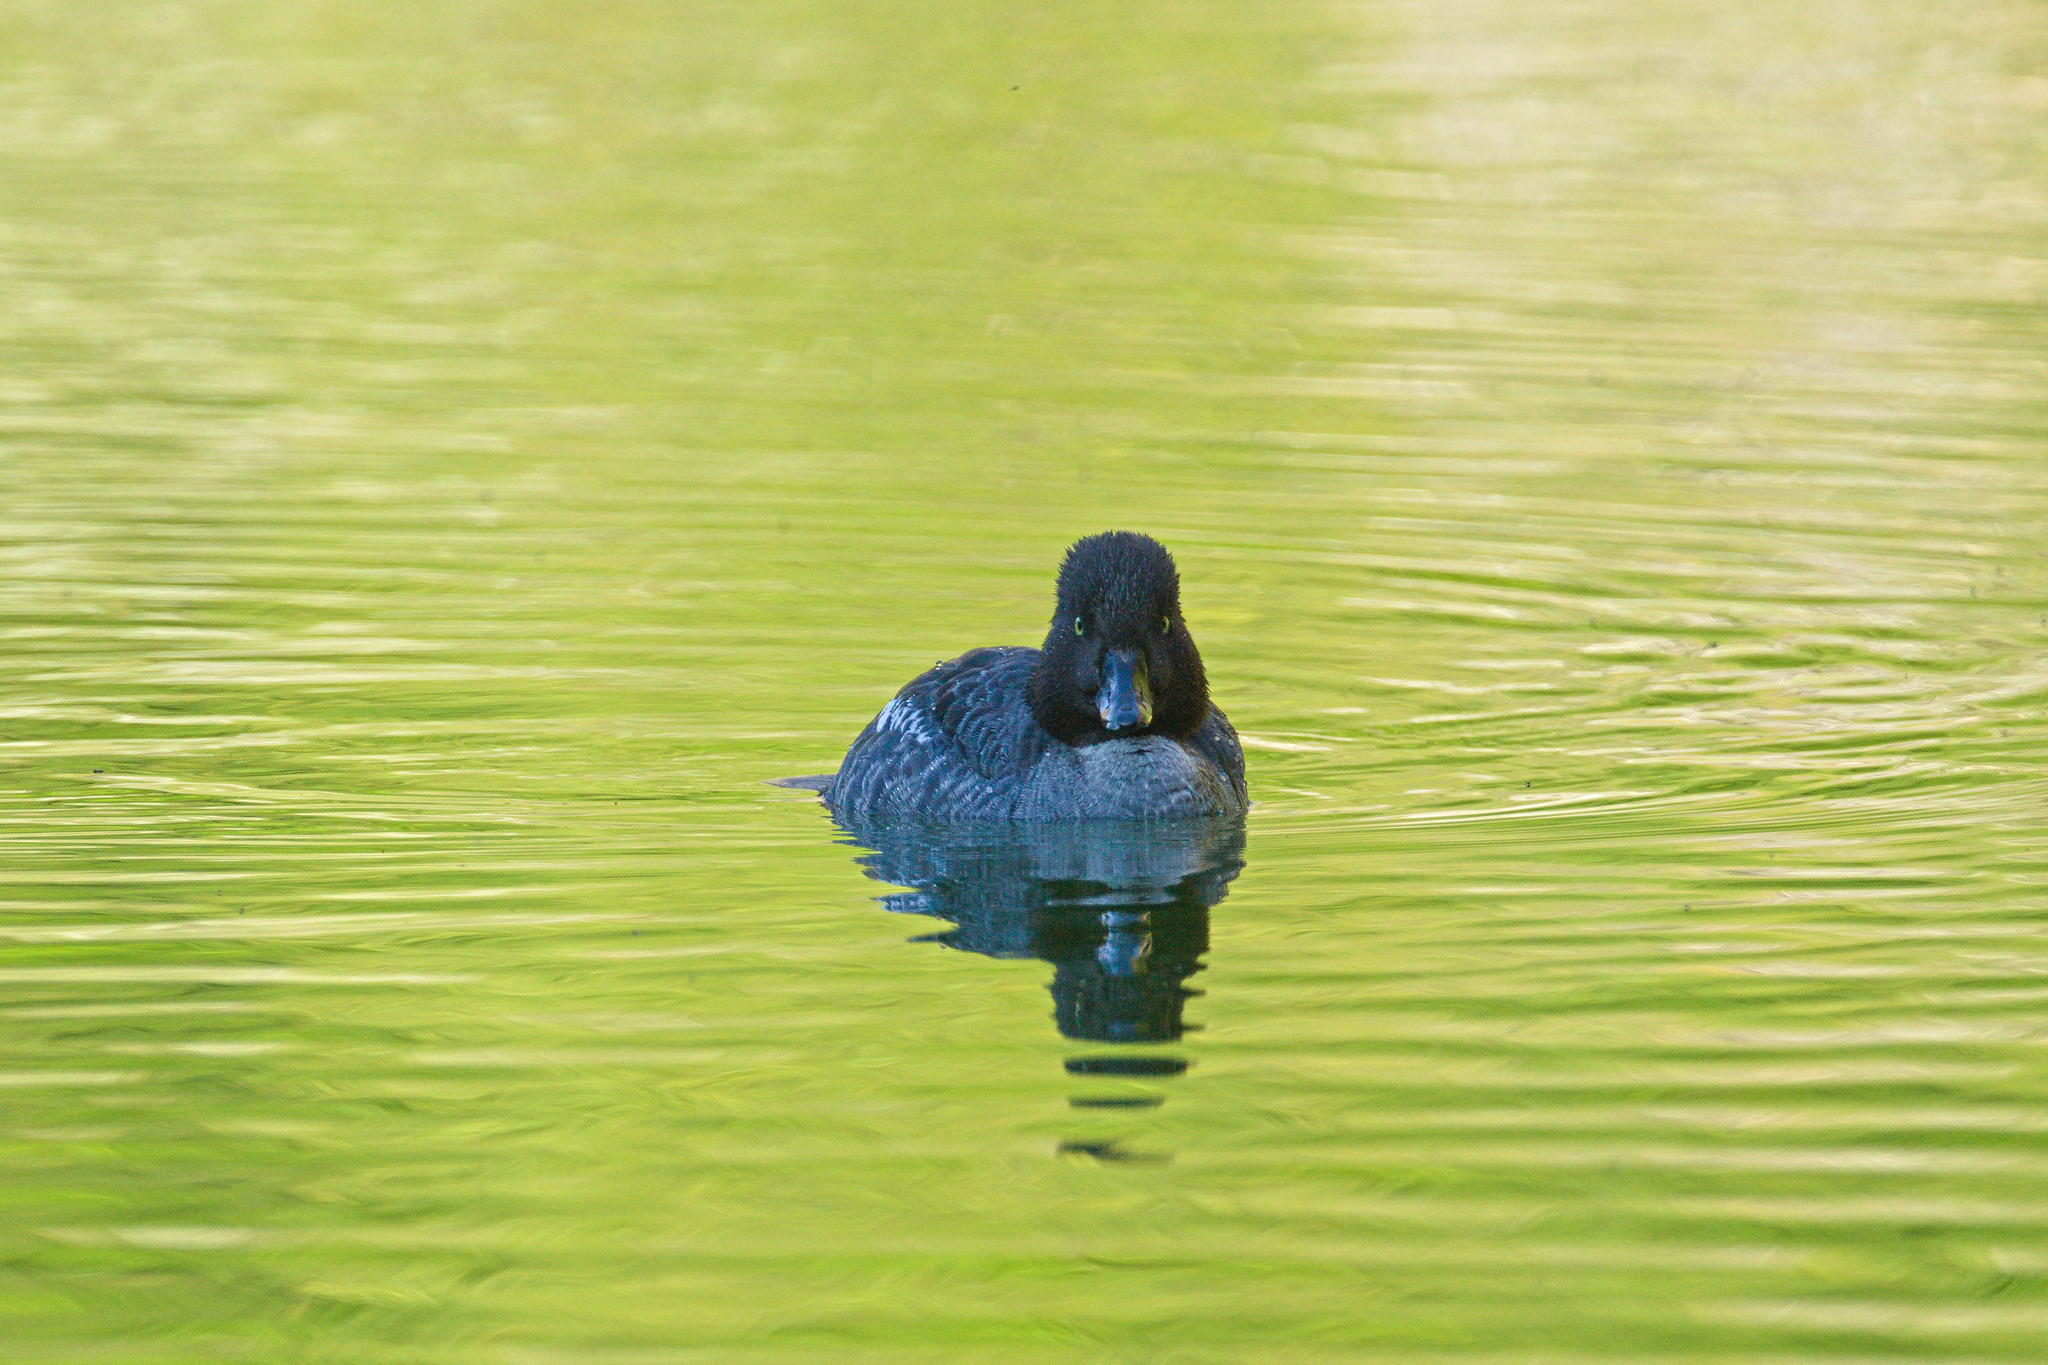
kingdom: Animalia
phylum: Chordata
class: Aves
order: Anseriformes
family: Anatidae
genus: Bucephala
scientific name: Bucephala islandica
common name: Barrow's goldeneye
